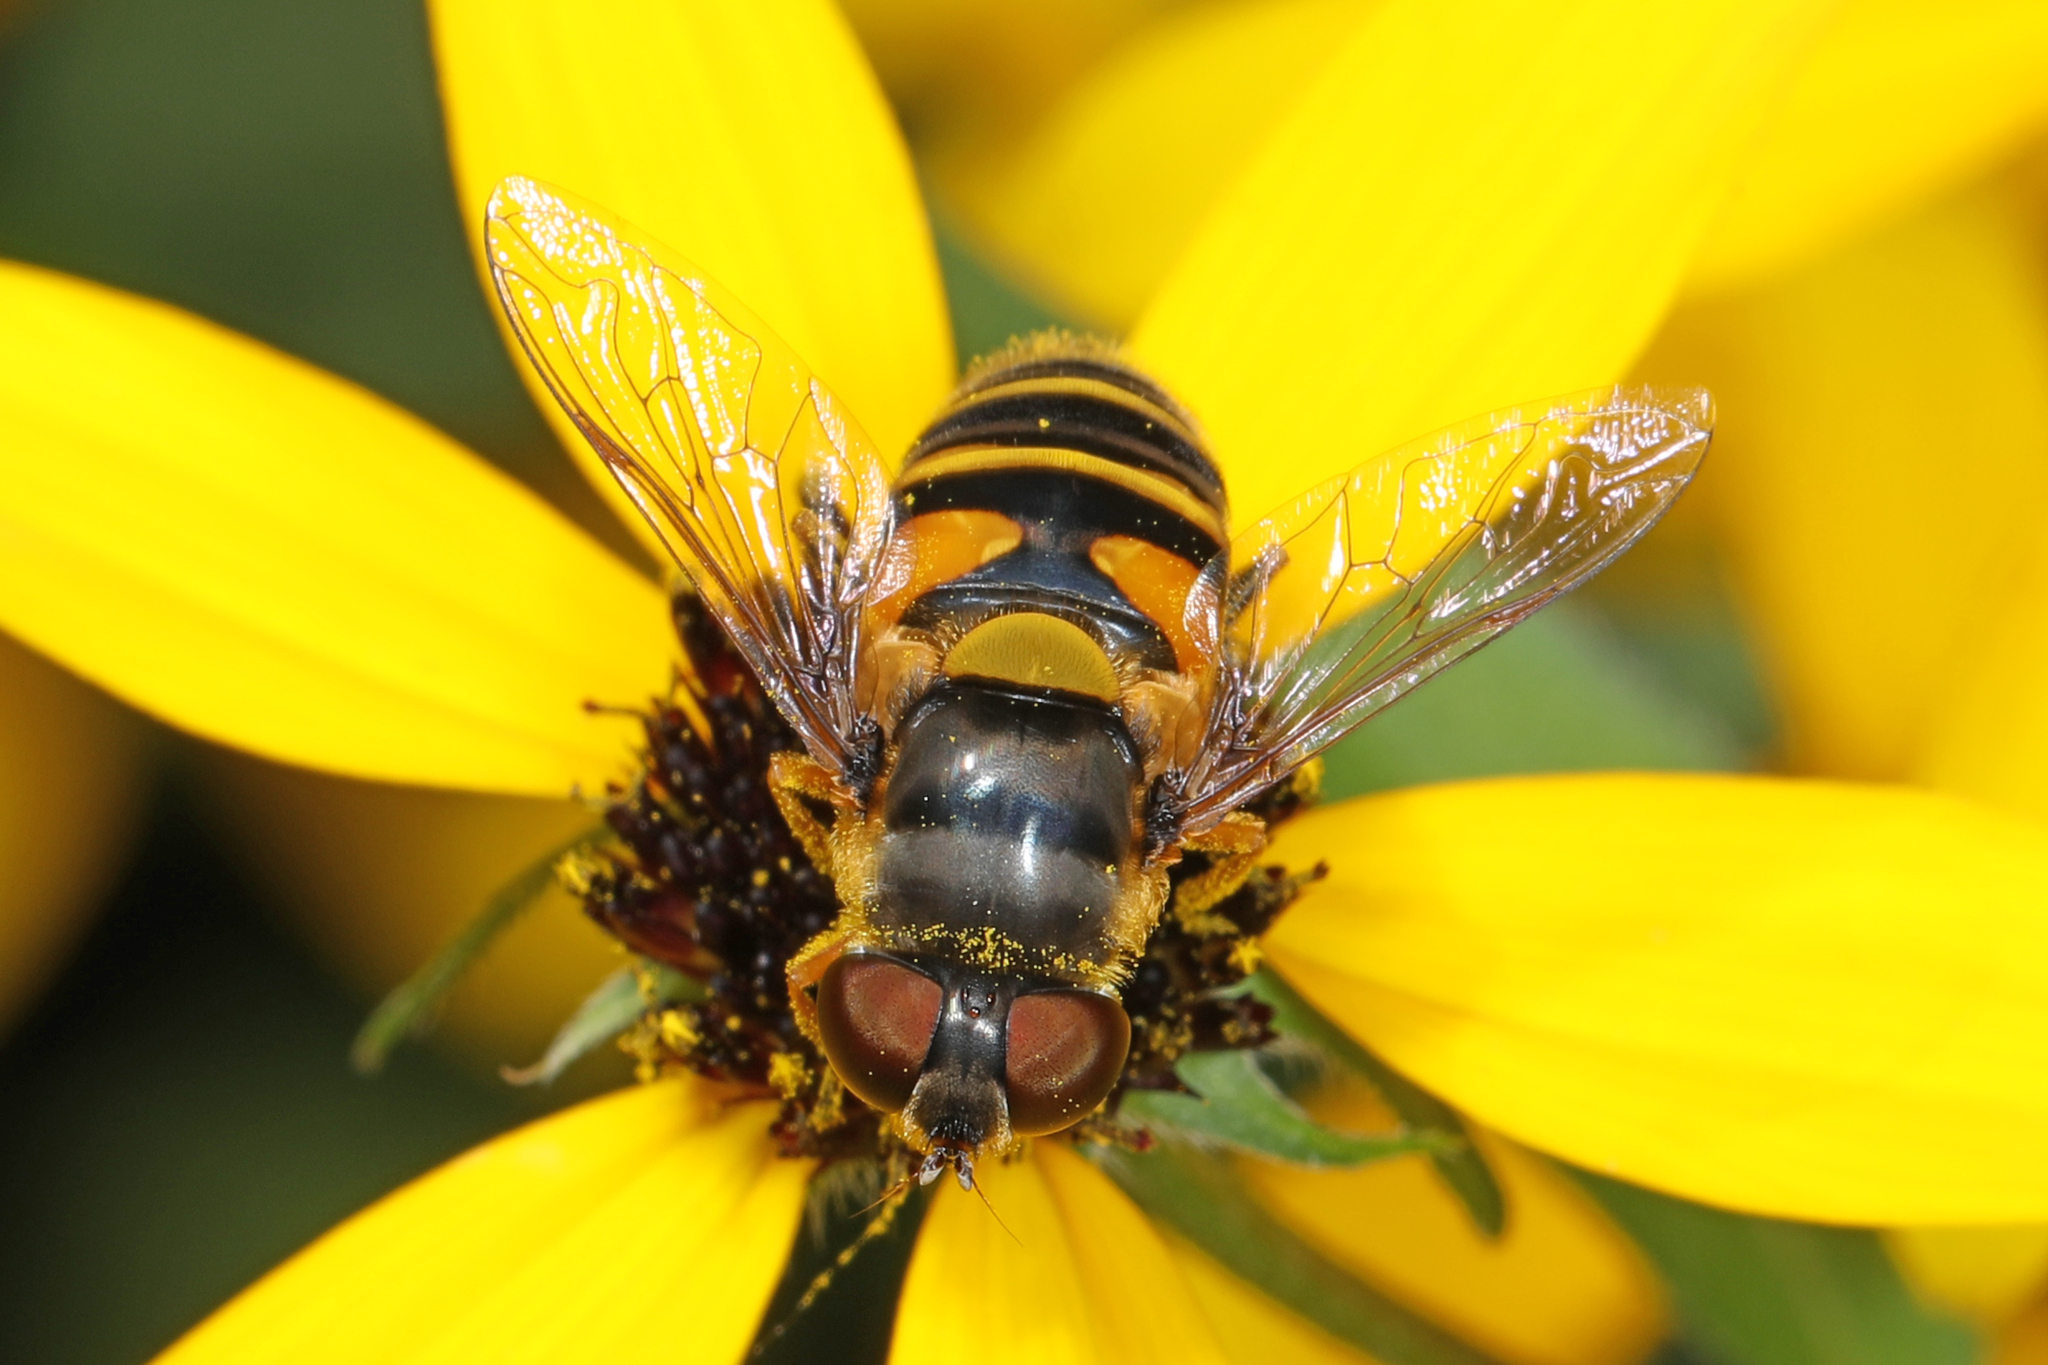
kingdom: Animalia
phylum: Arthropoda
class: Insecta
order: Diptera
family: Syrphidae
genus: Eristalis
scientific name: Eristalis transversa
